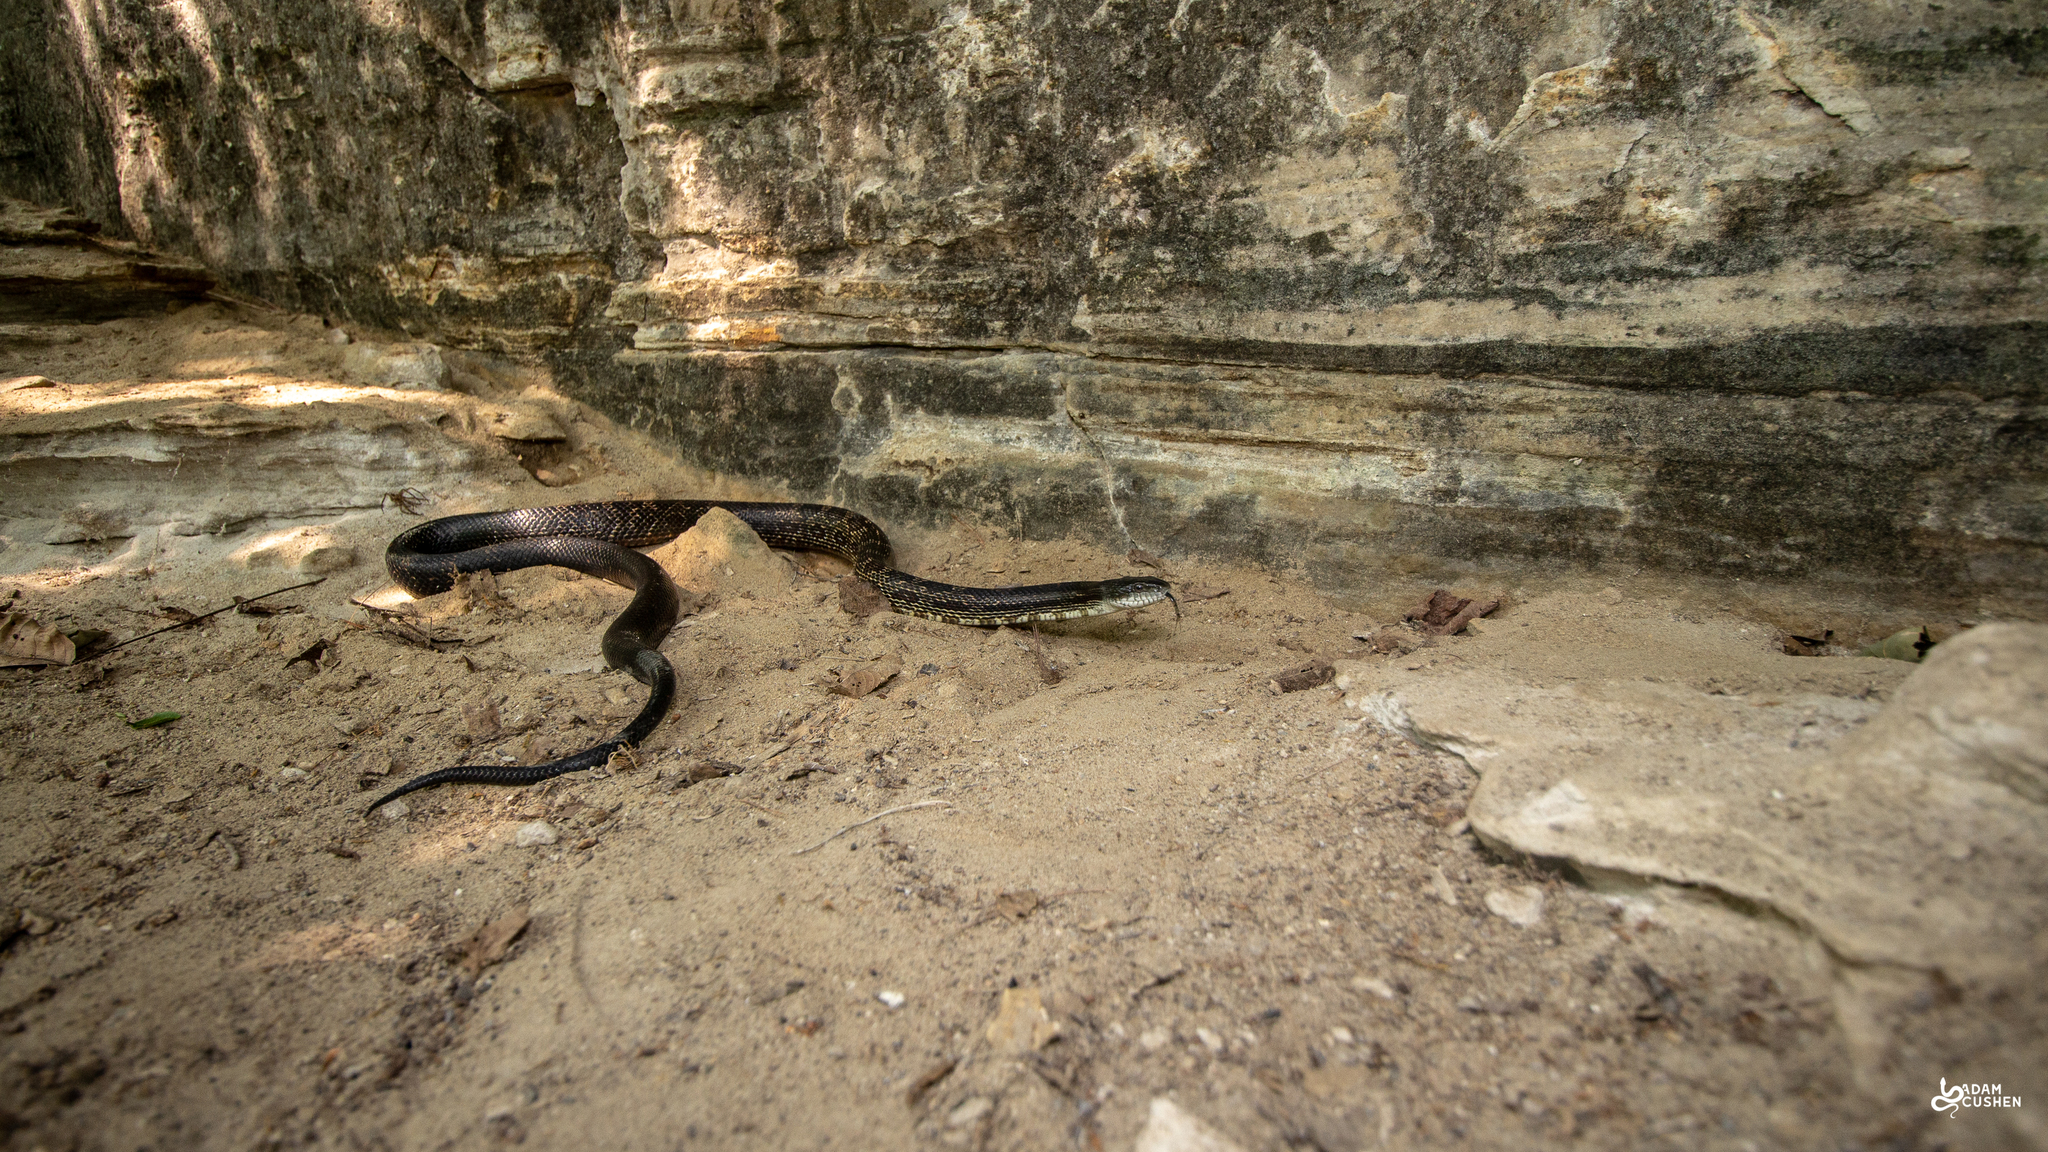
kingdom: Animalia
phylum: Chordata
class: Squamata
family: Colubridae
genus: Pantherophis
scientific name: Pantherophis spiloides
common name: Gray rat snake
